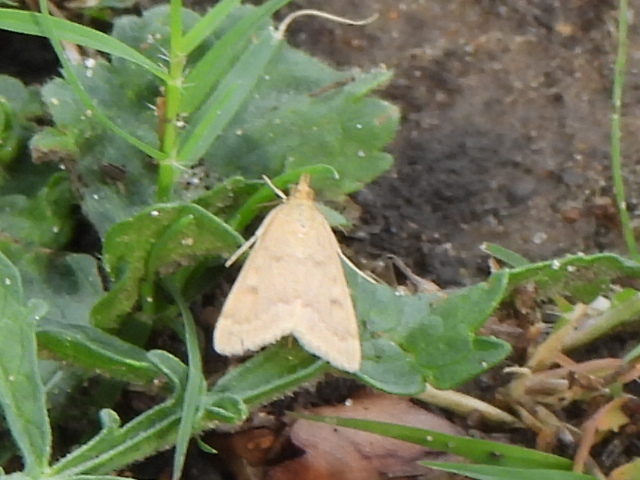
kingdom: Animalia
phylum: Arthropoda
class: Insecta
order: Lepidoptera
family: Crambidae
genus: Achyra
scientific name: Achyra rantalis
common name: Garden webworm
